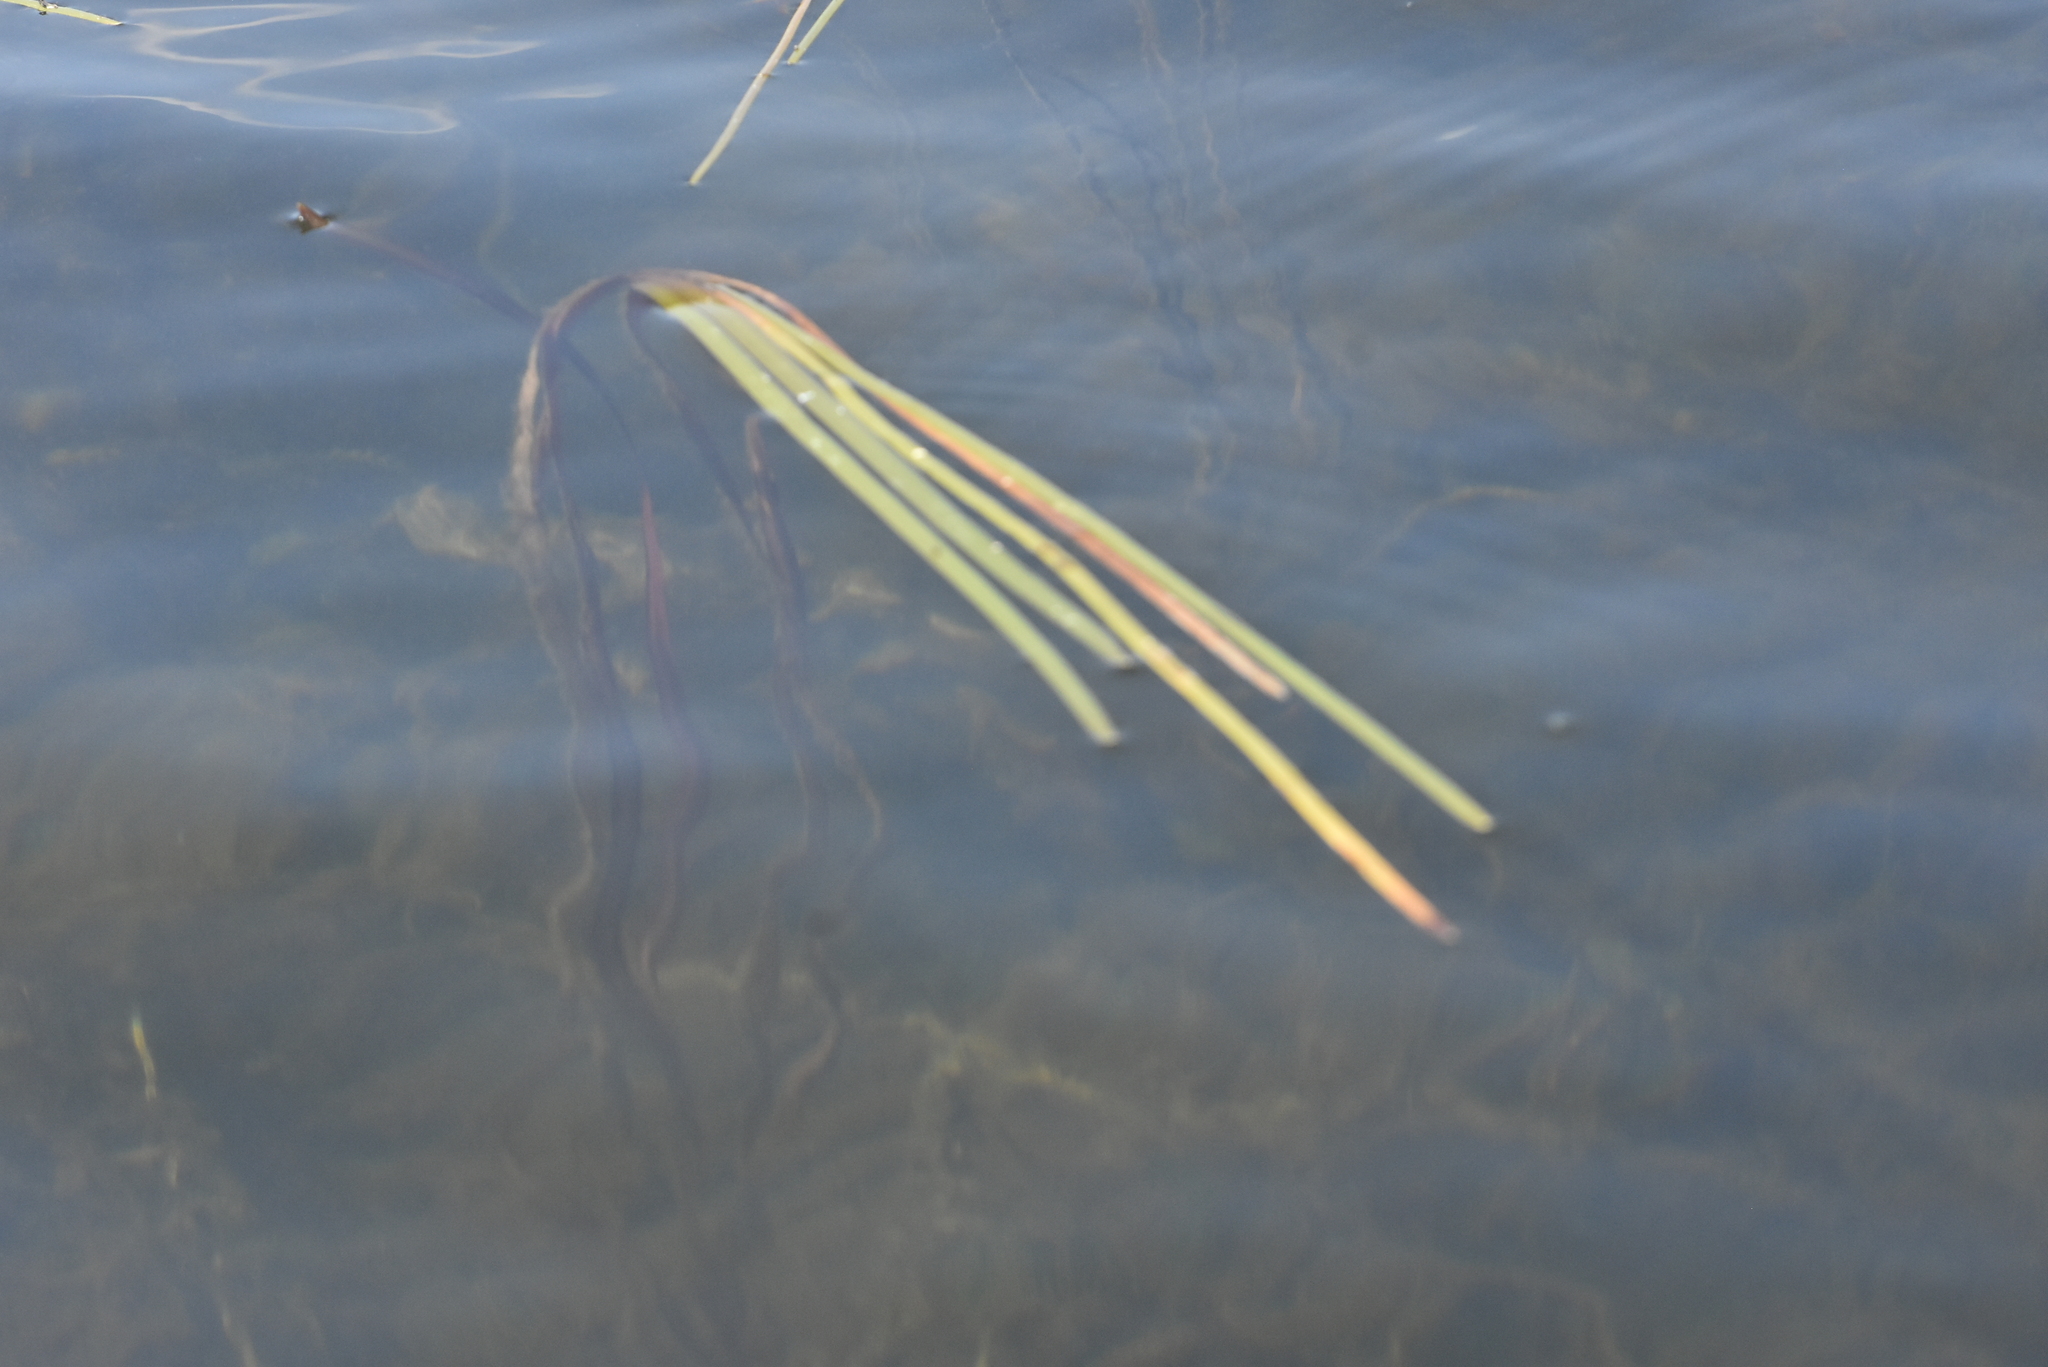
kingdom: Plantae
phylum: Tracheophyta
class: Liliopsida
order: Poales
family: Typhaceae
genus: Sparganium
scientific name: Sparganium emersum
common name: Unbranched bur-reed
